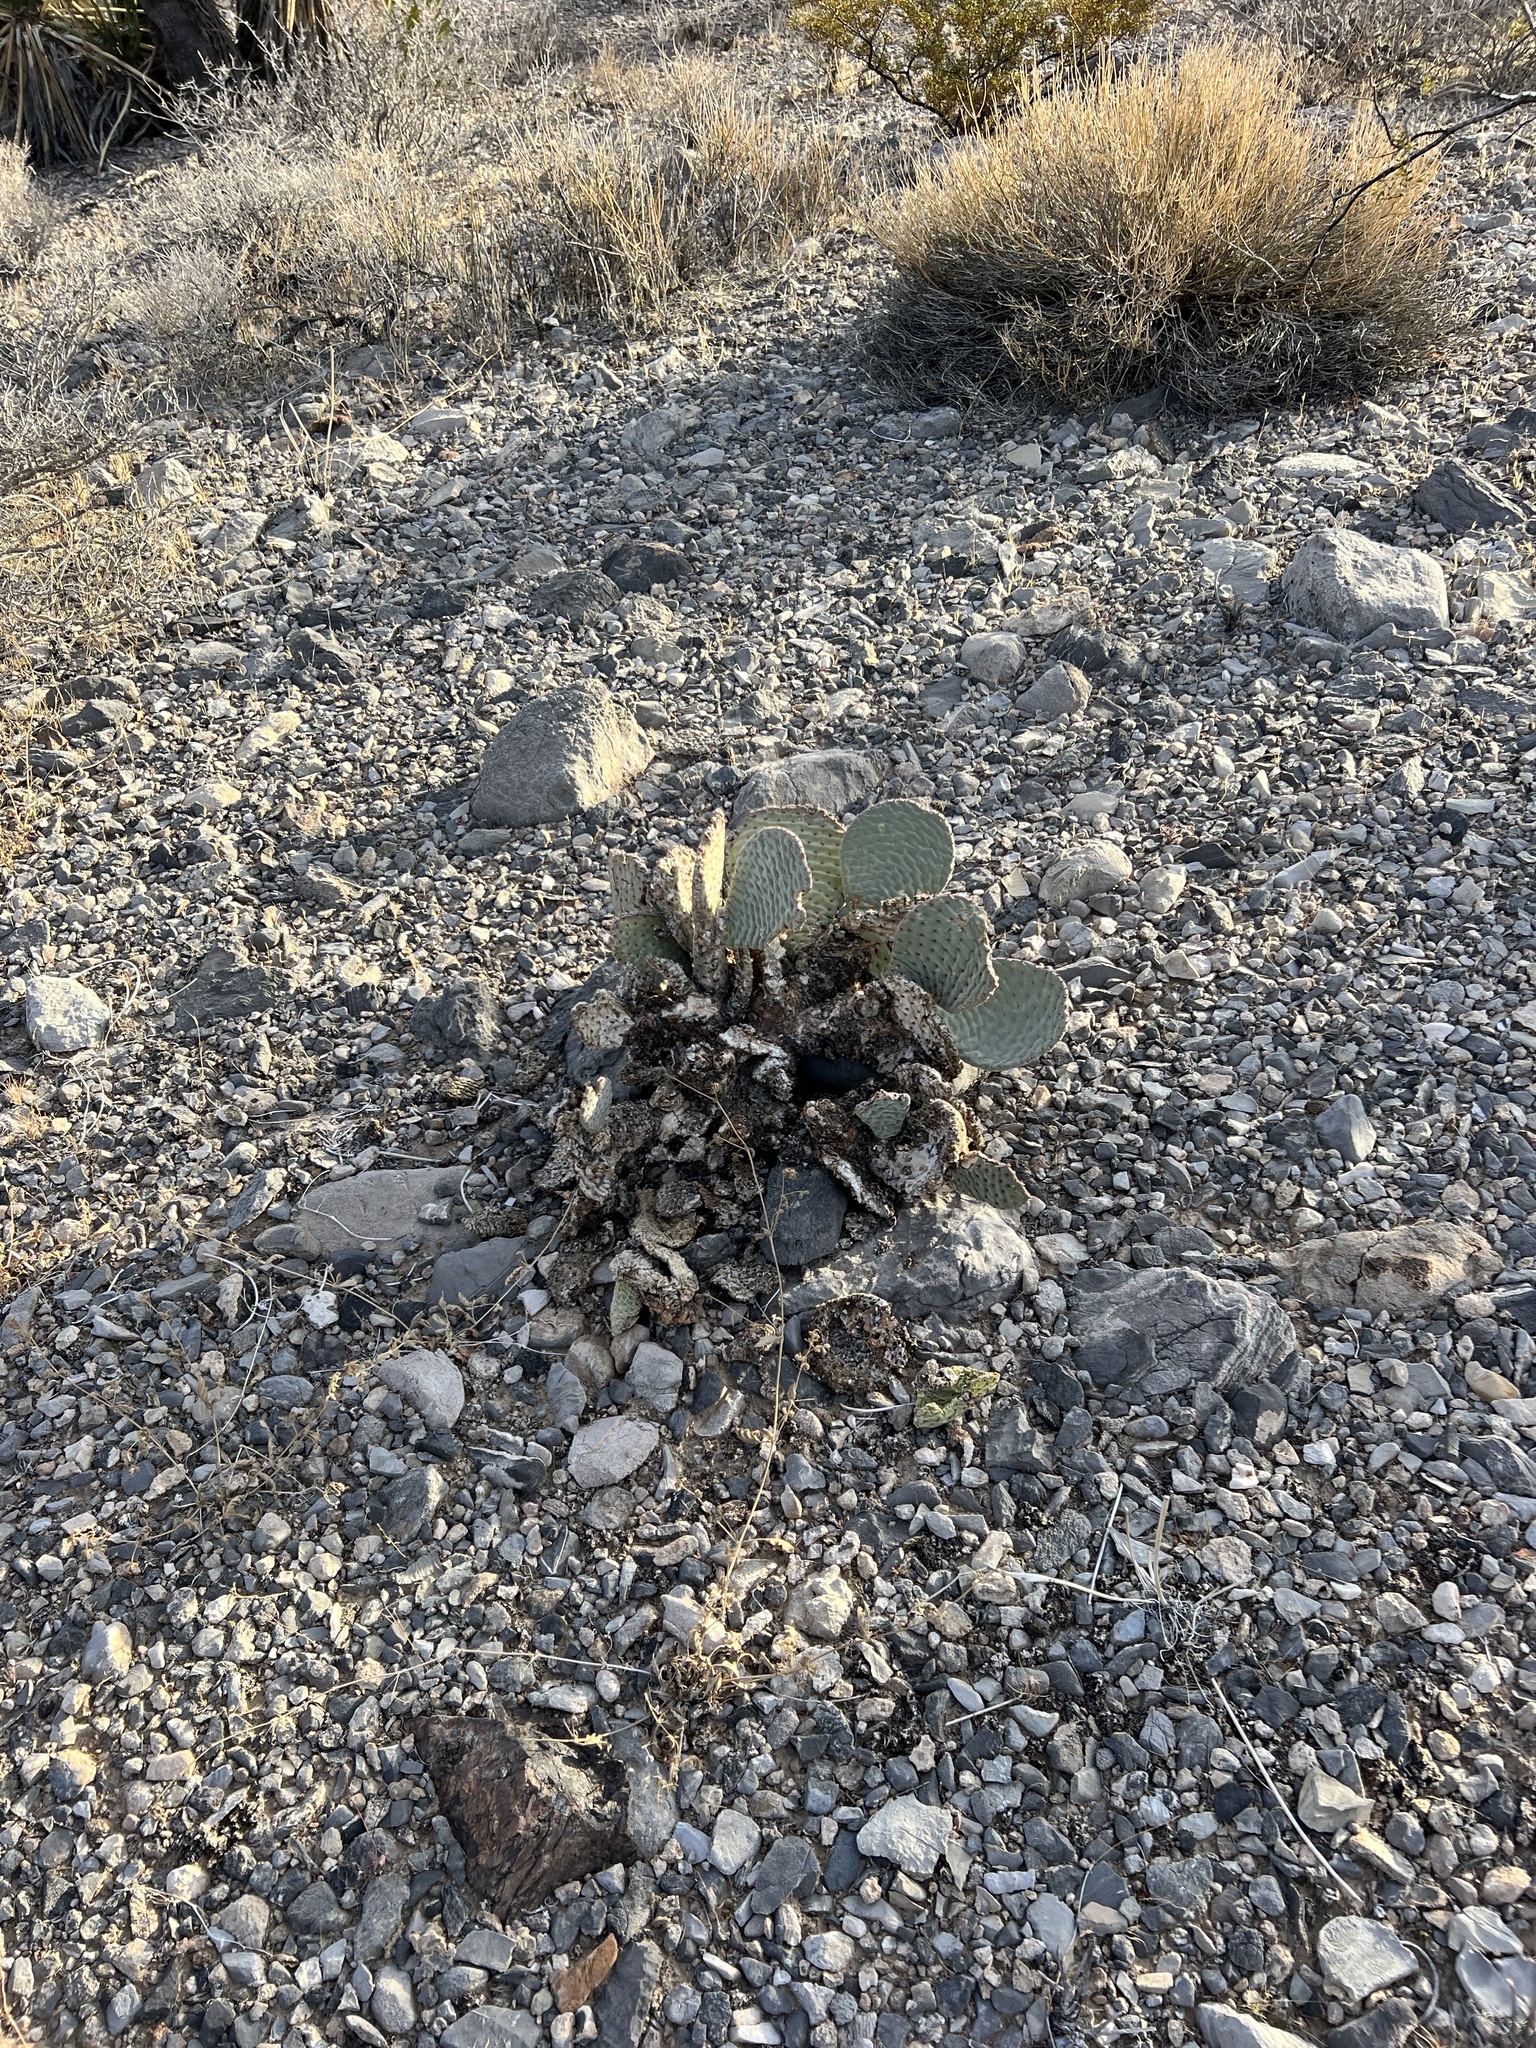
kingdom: Plantae
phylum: Tracheophyta
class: Magnoliopsida
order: Caryophyllales
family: Cactaceae
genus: Opuntia
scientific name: Opuntia basilaris
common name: Beavertail prickly-pear
